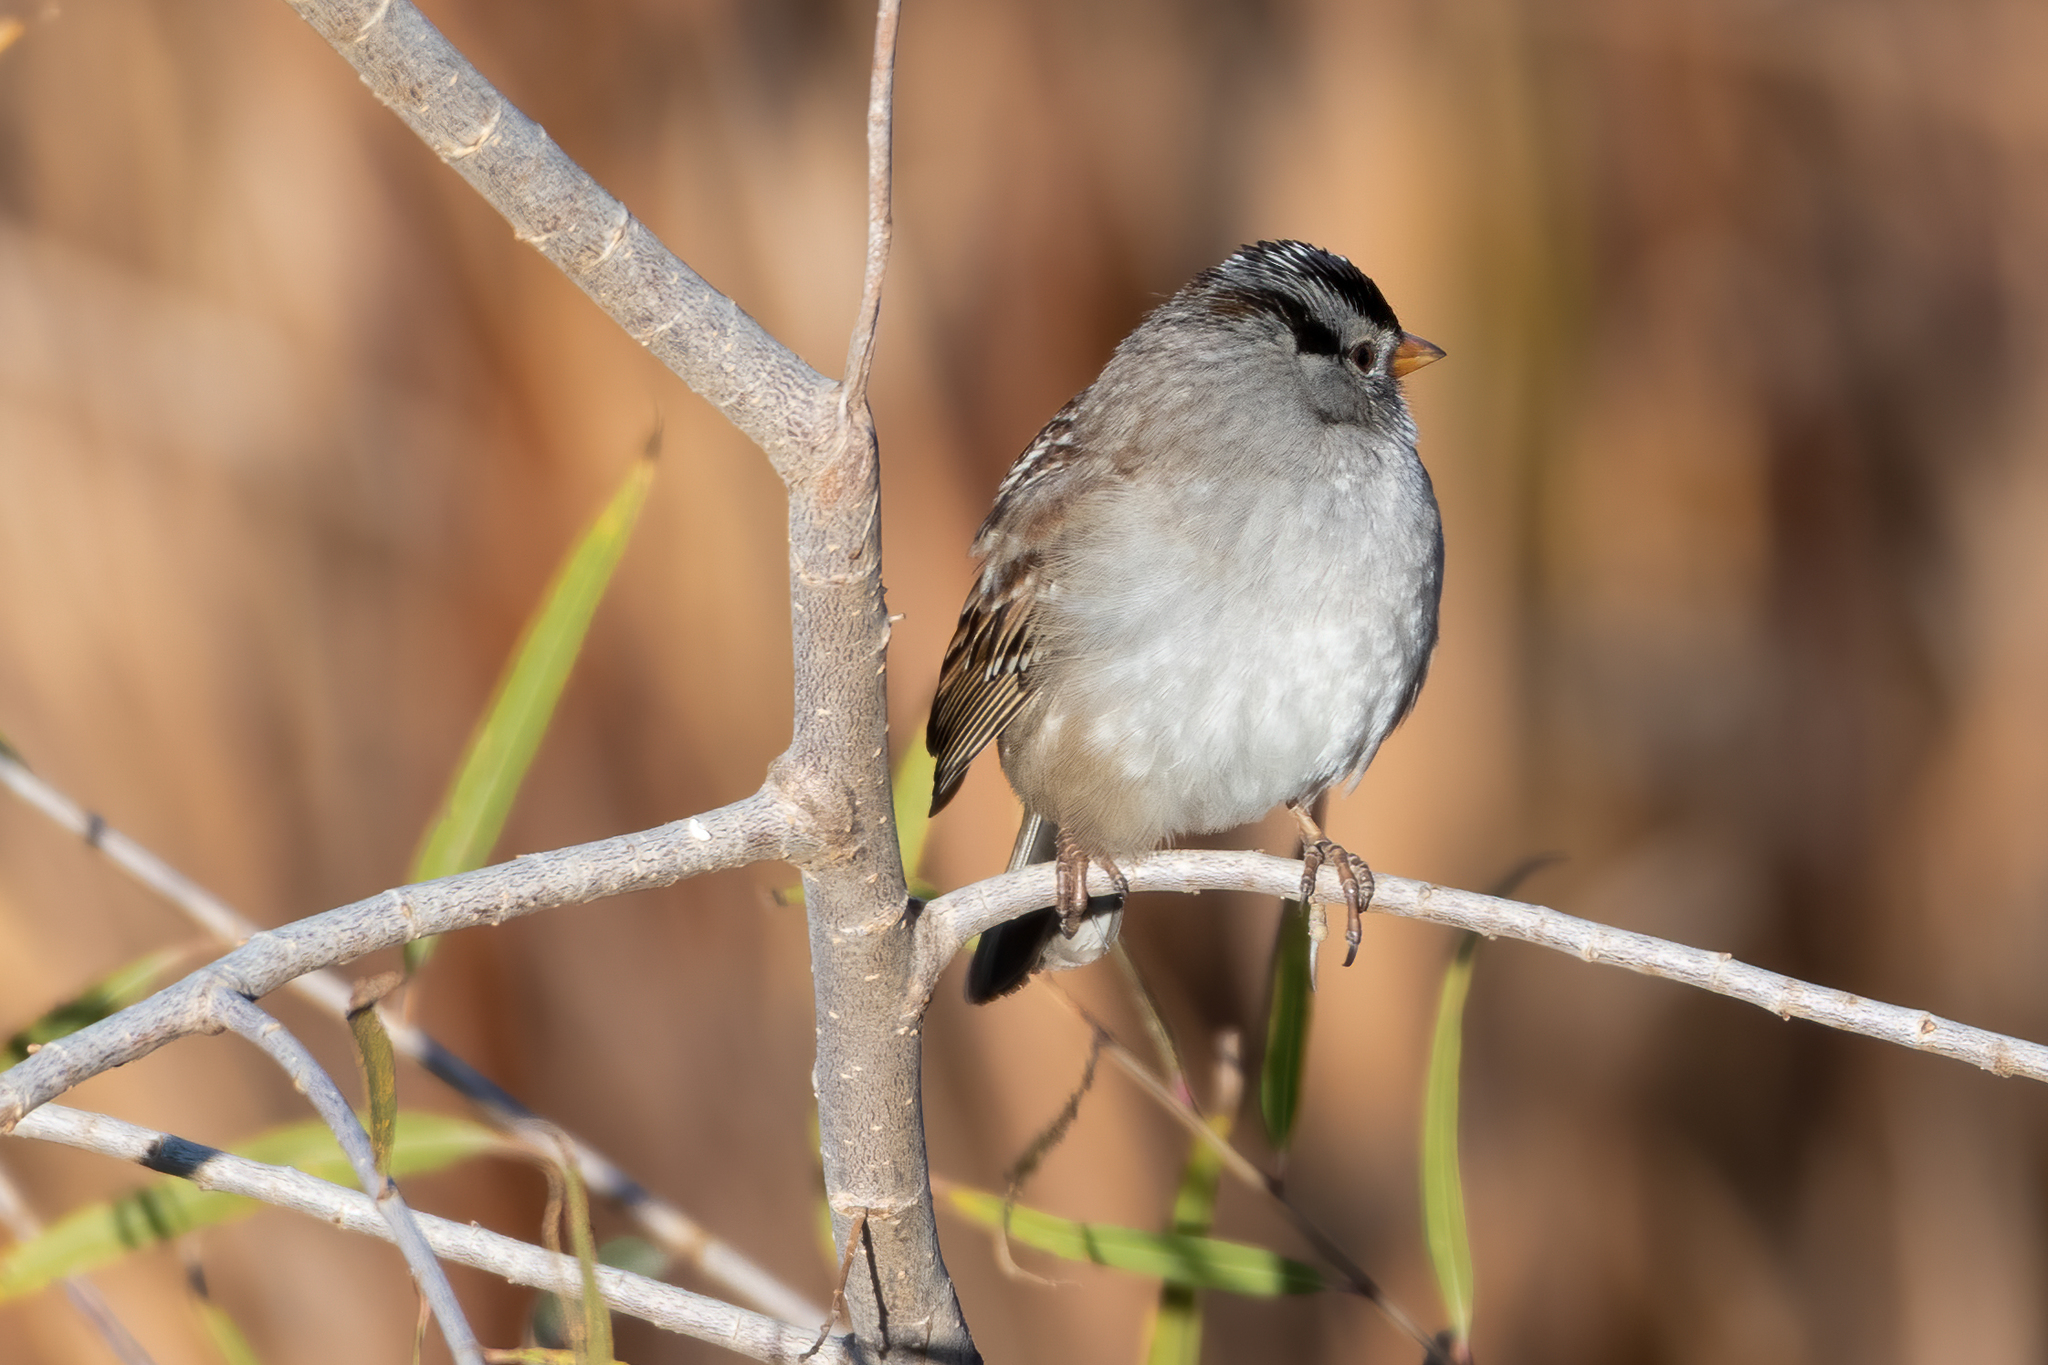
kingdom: Animalia
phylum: Chordata
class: Aves
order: Passeriformes
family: Passerellidae
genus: Zonotrichia
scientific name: Zonotrichia leucophrys
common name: White-crowned sparrow
